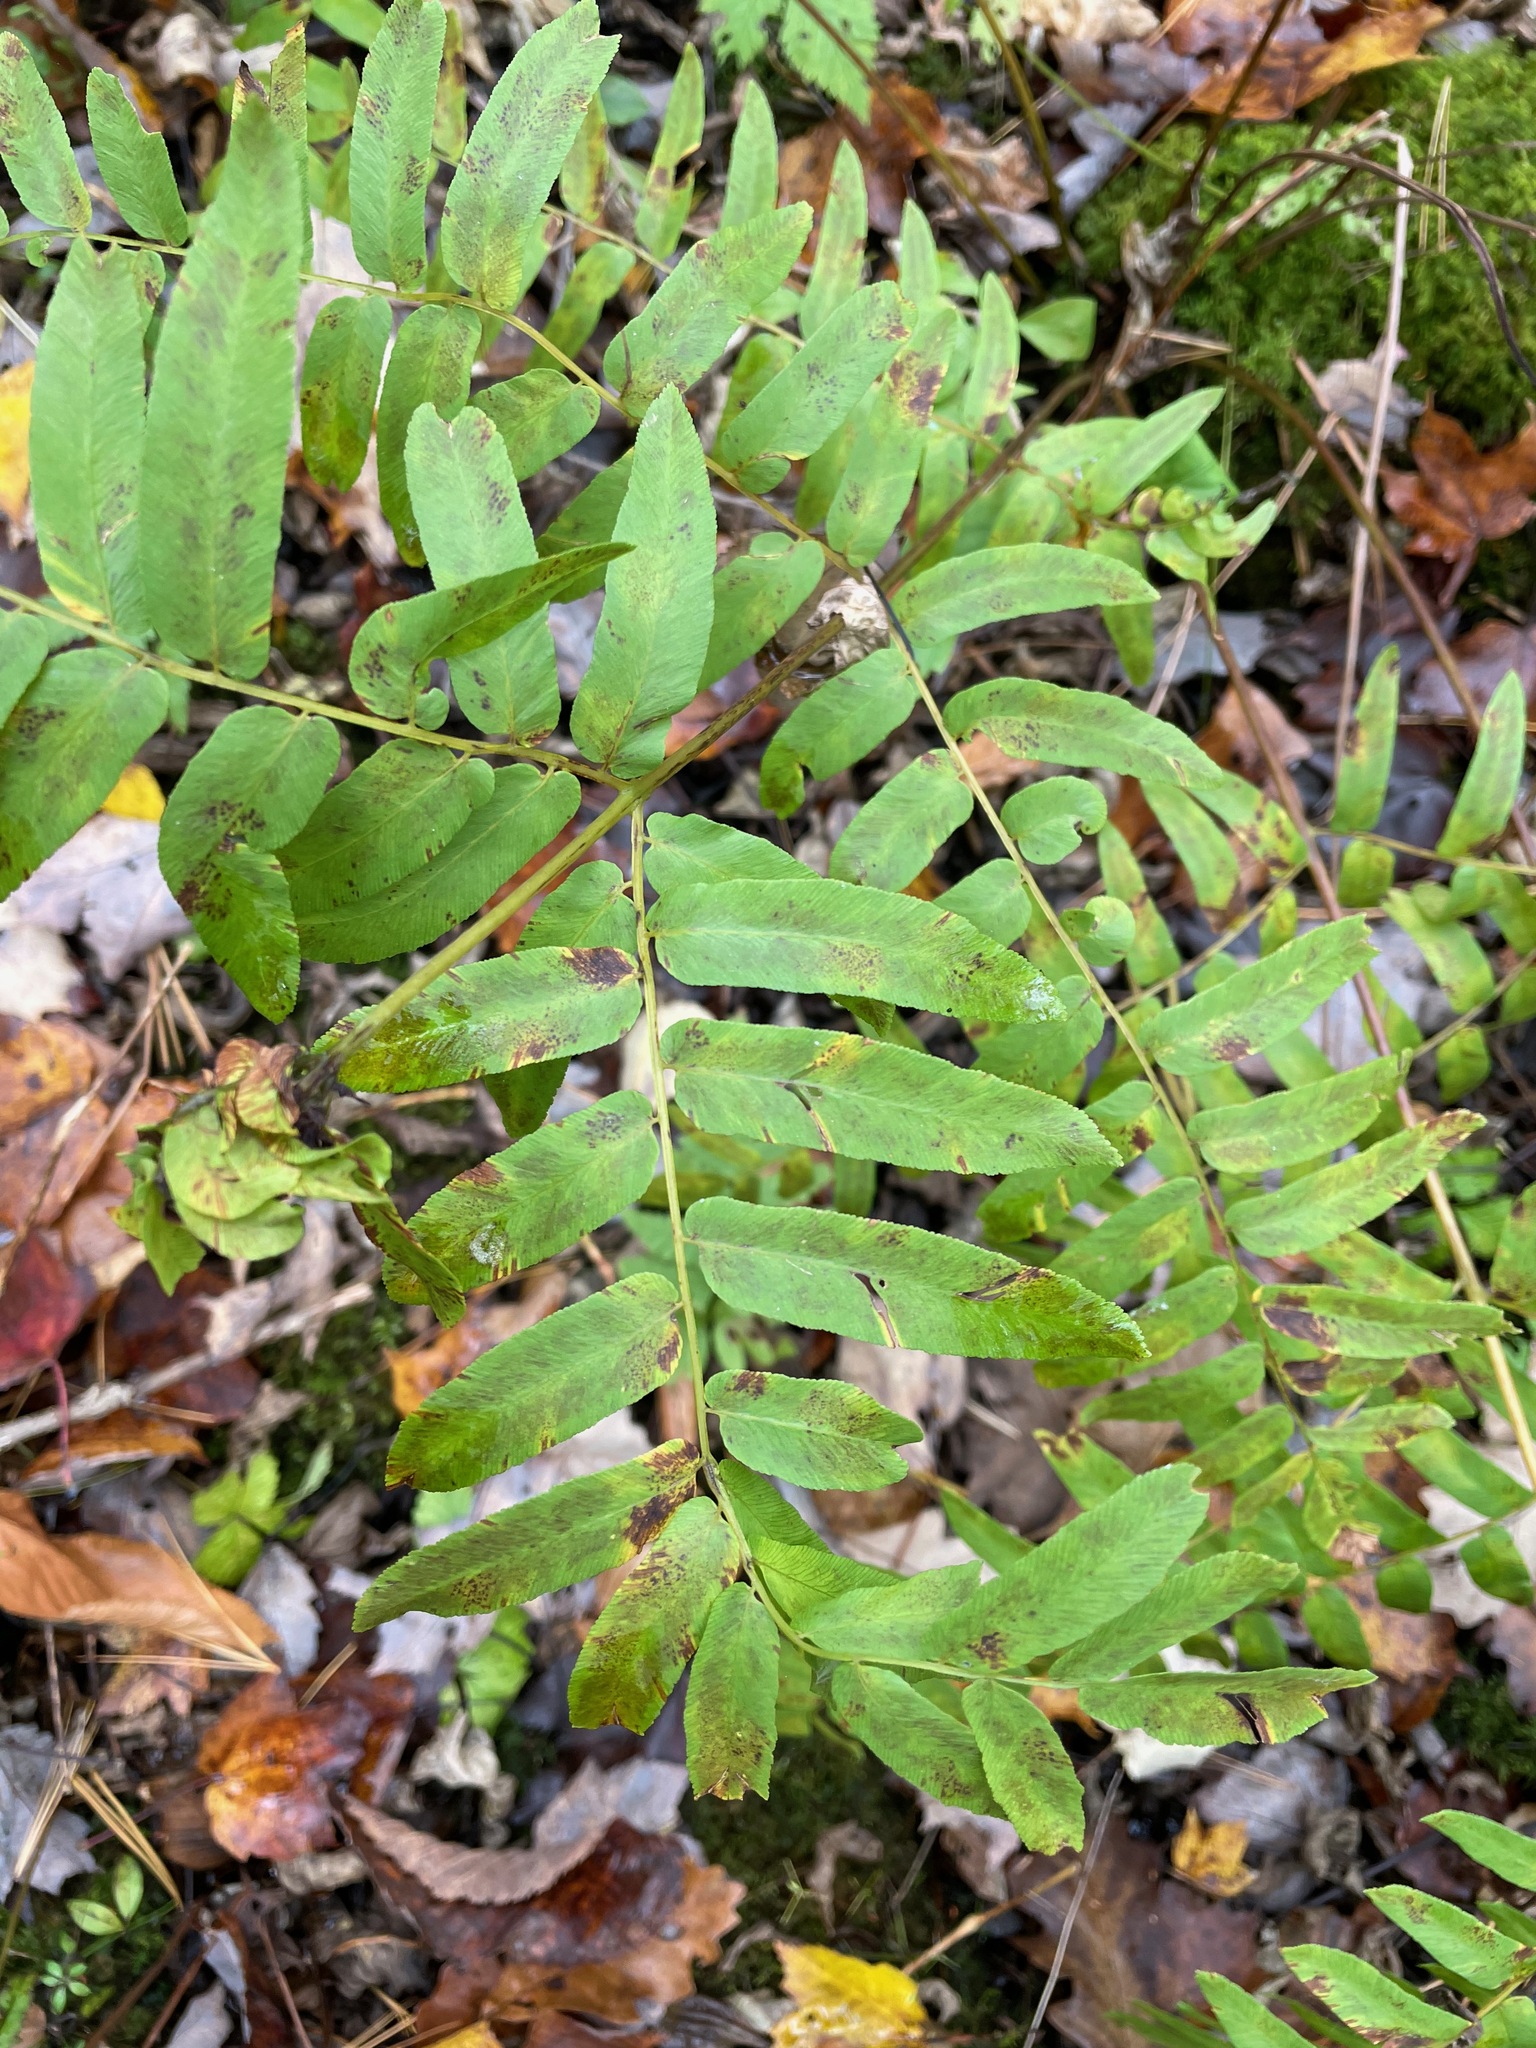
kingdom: Plantae
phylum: Tracheophyta
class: Polypodiopsida
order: Osmundales
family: Osmundaceae
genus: Osmunda
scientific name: Osmunda spectabilis
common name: American royal fern
